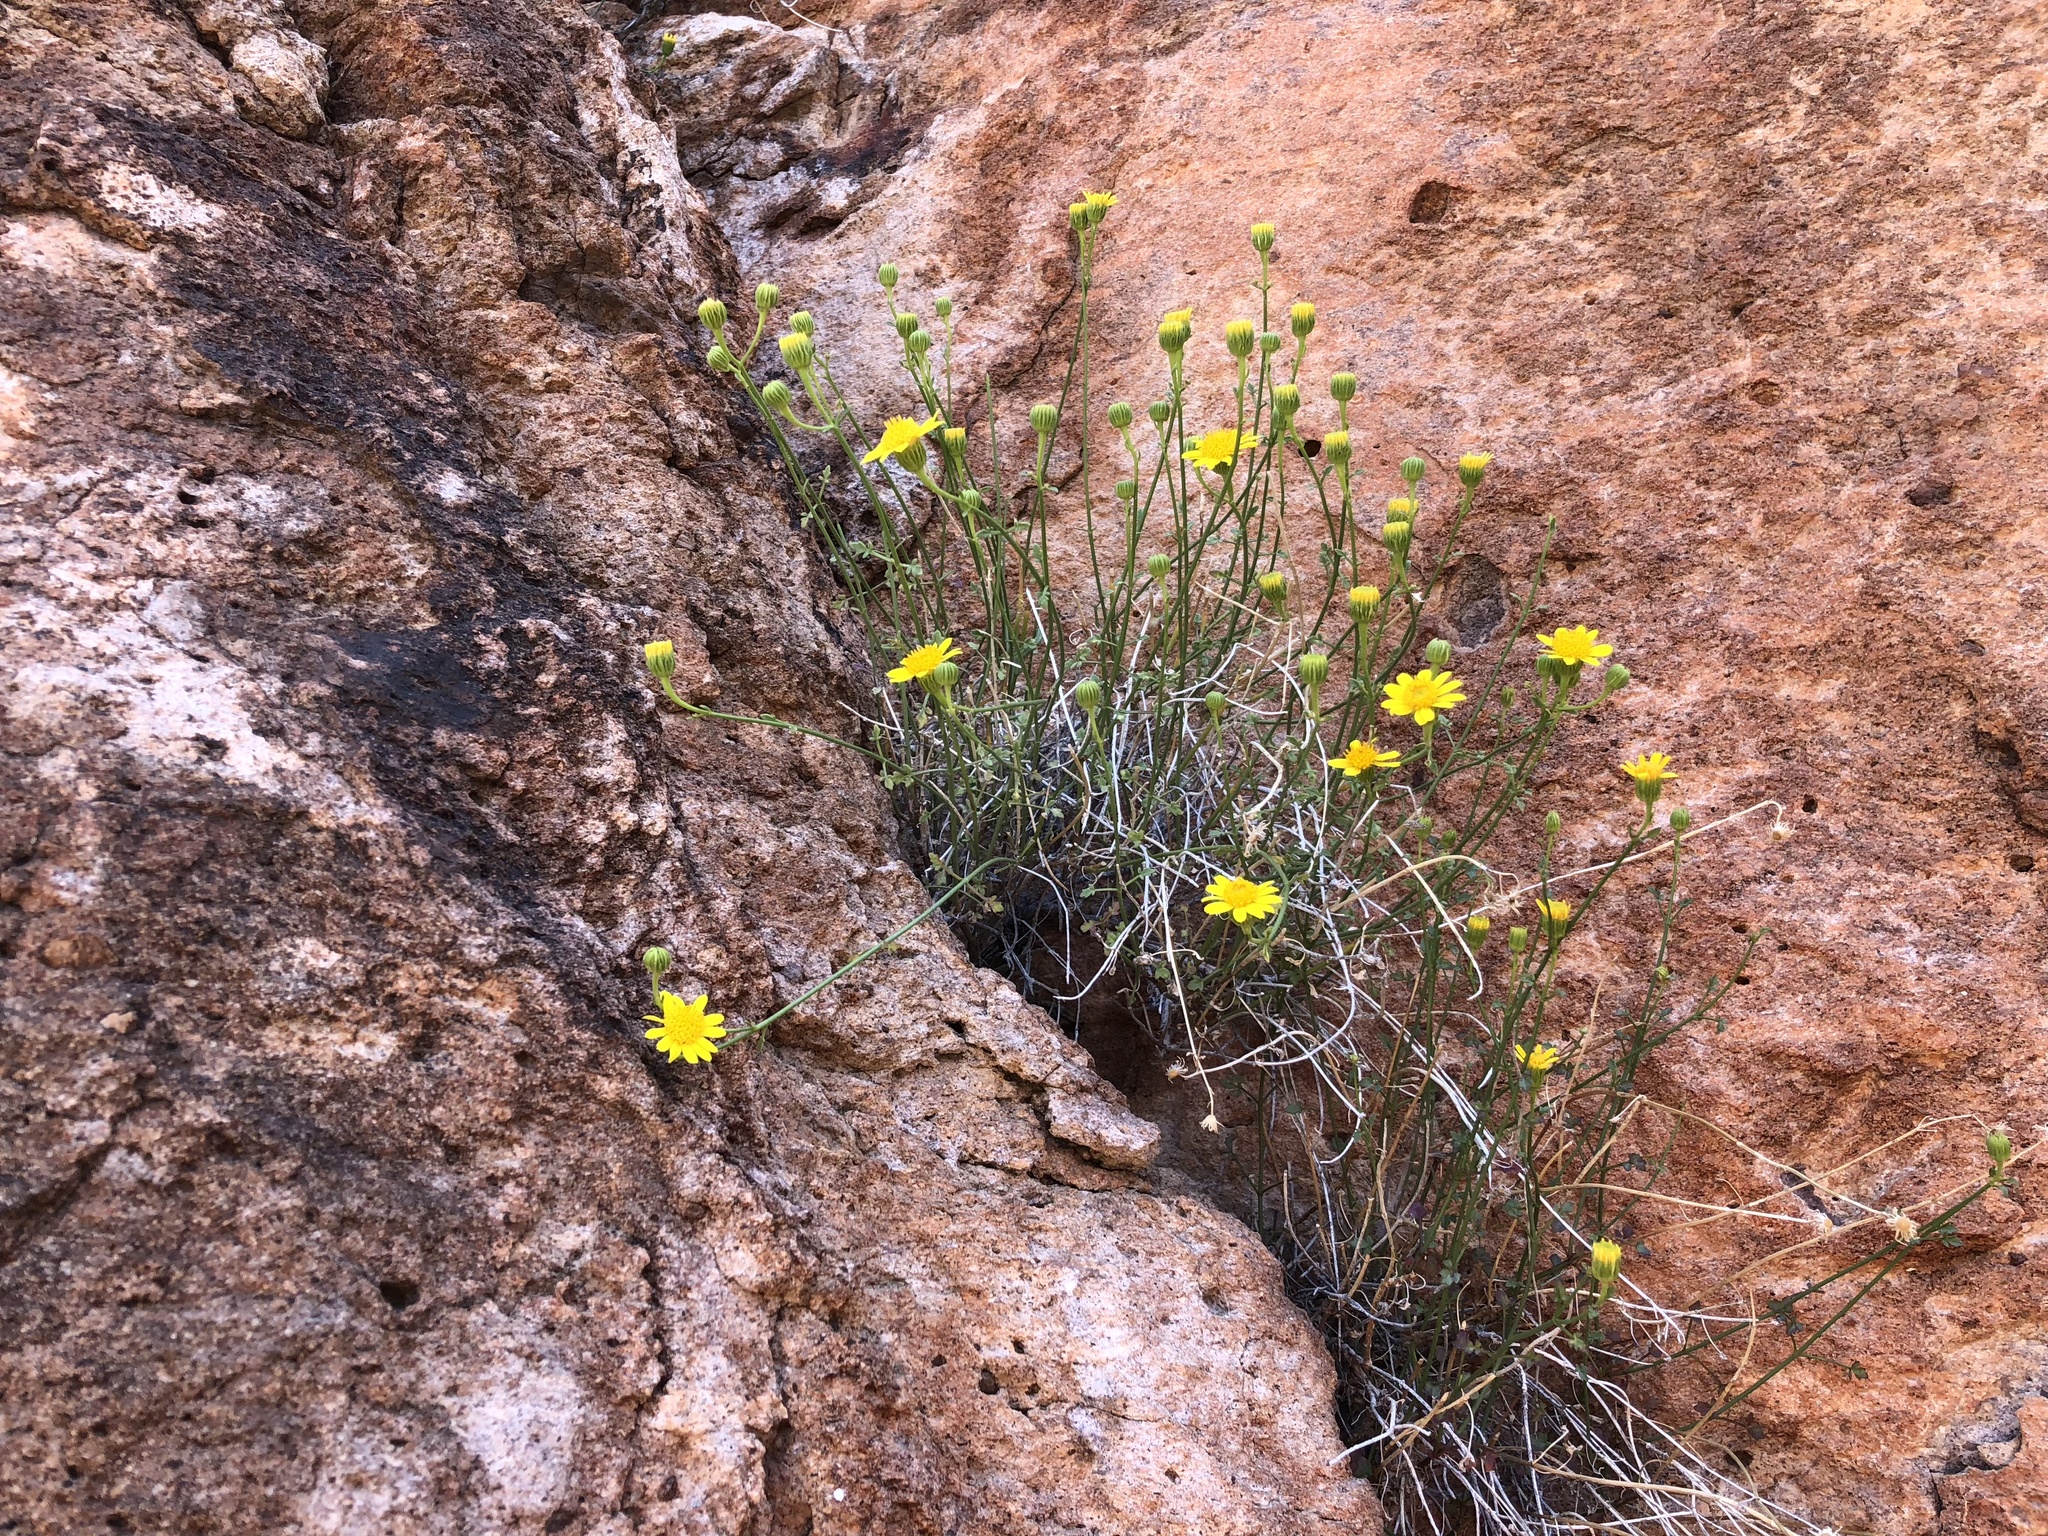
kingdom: Plantae
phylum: Tracheophyta
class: Magnoliopsida
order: Asterales
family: Asteraceae
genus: Laphamia
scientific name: Laphamia gilensis
